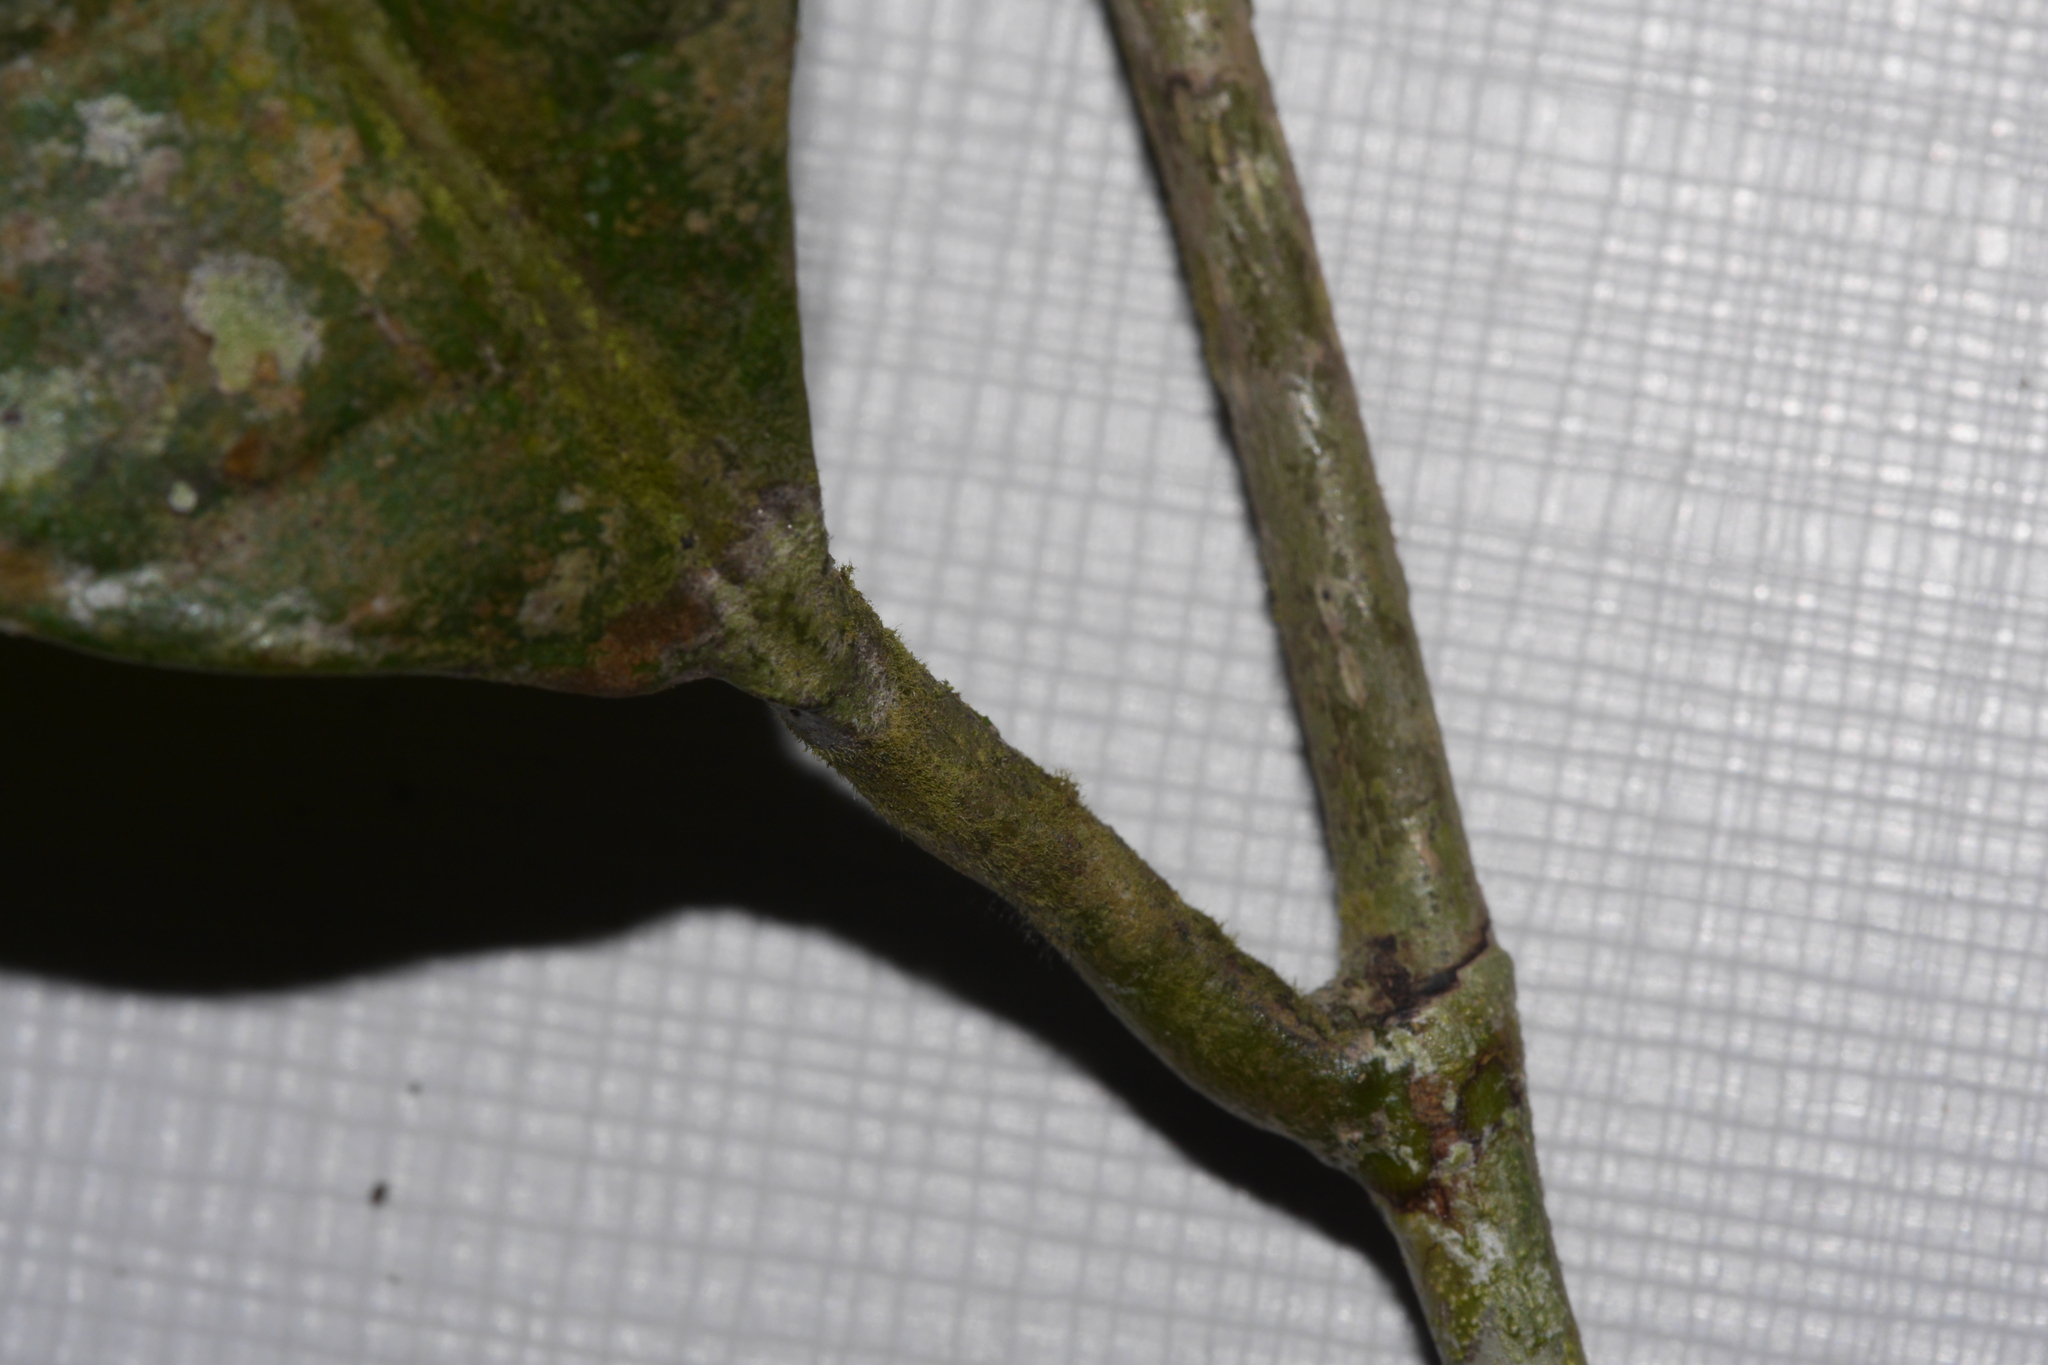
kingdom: Plantae
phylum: Tracheophyta
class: Magnoliopsida
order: Rosales
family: Moraceae
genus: Sorocea
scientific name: Sorocea sarcocarpa
